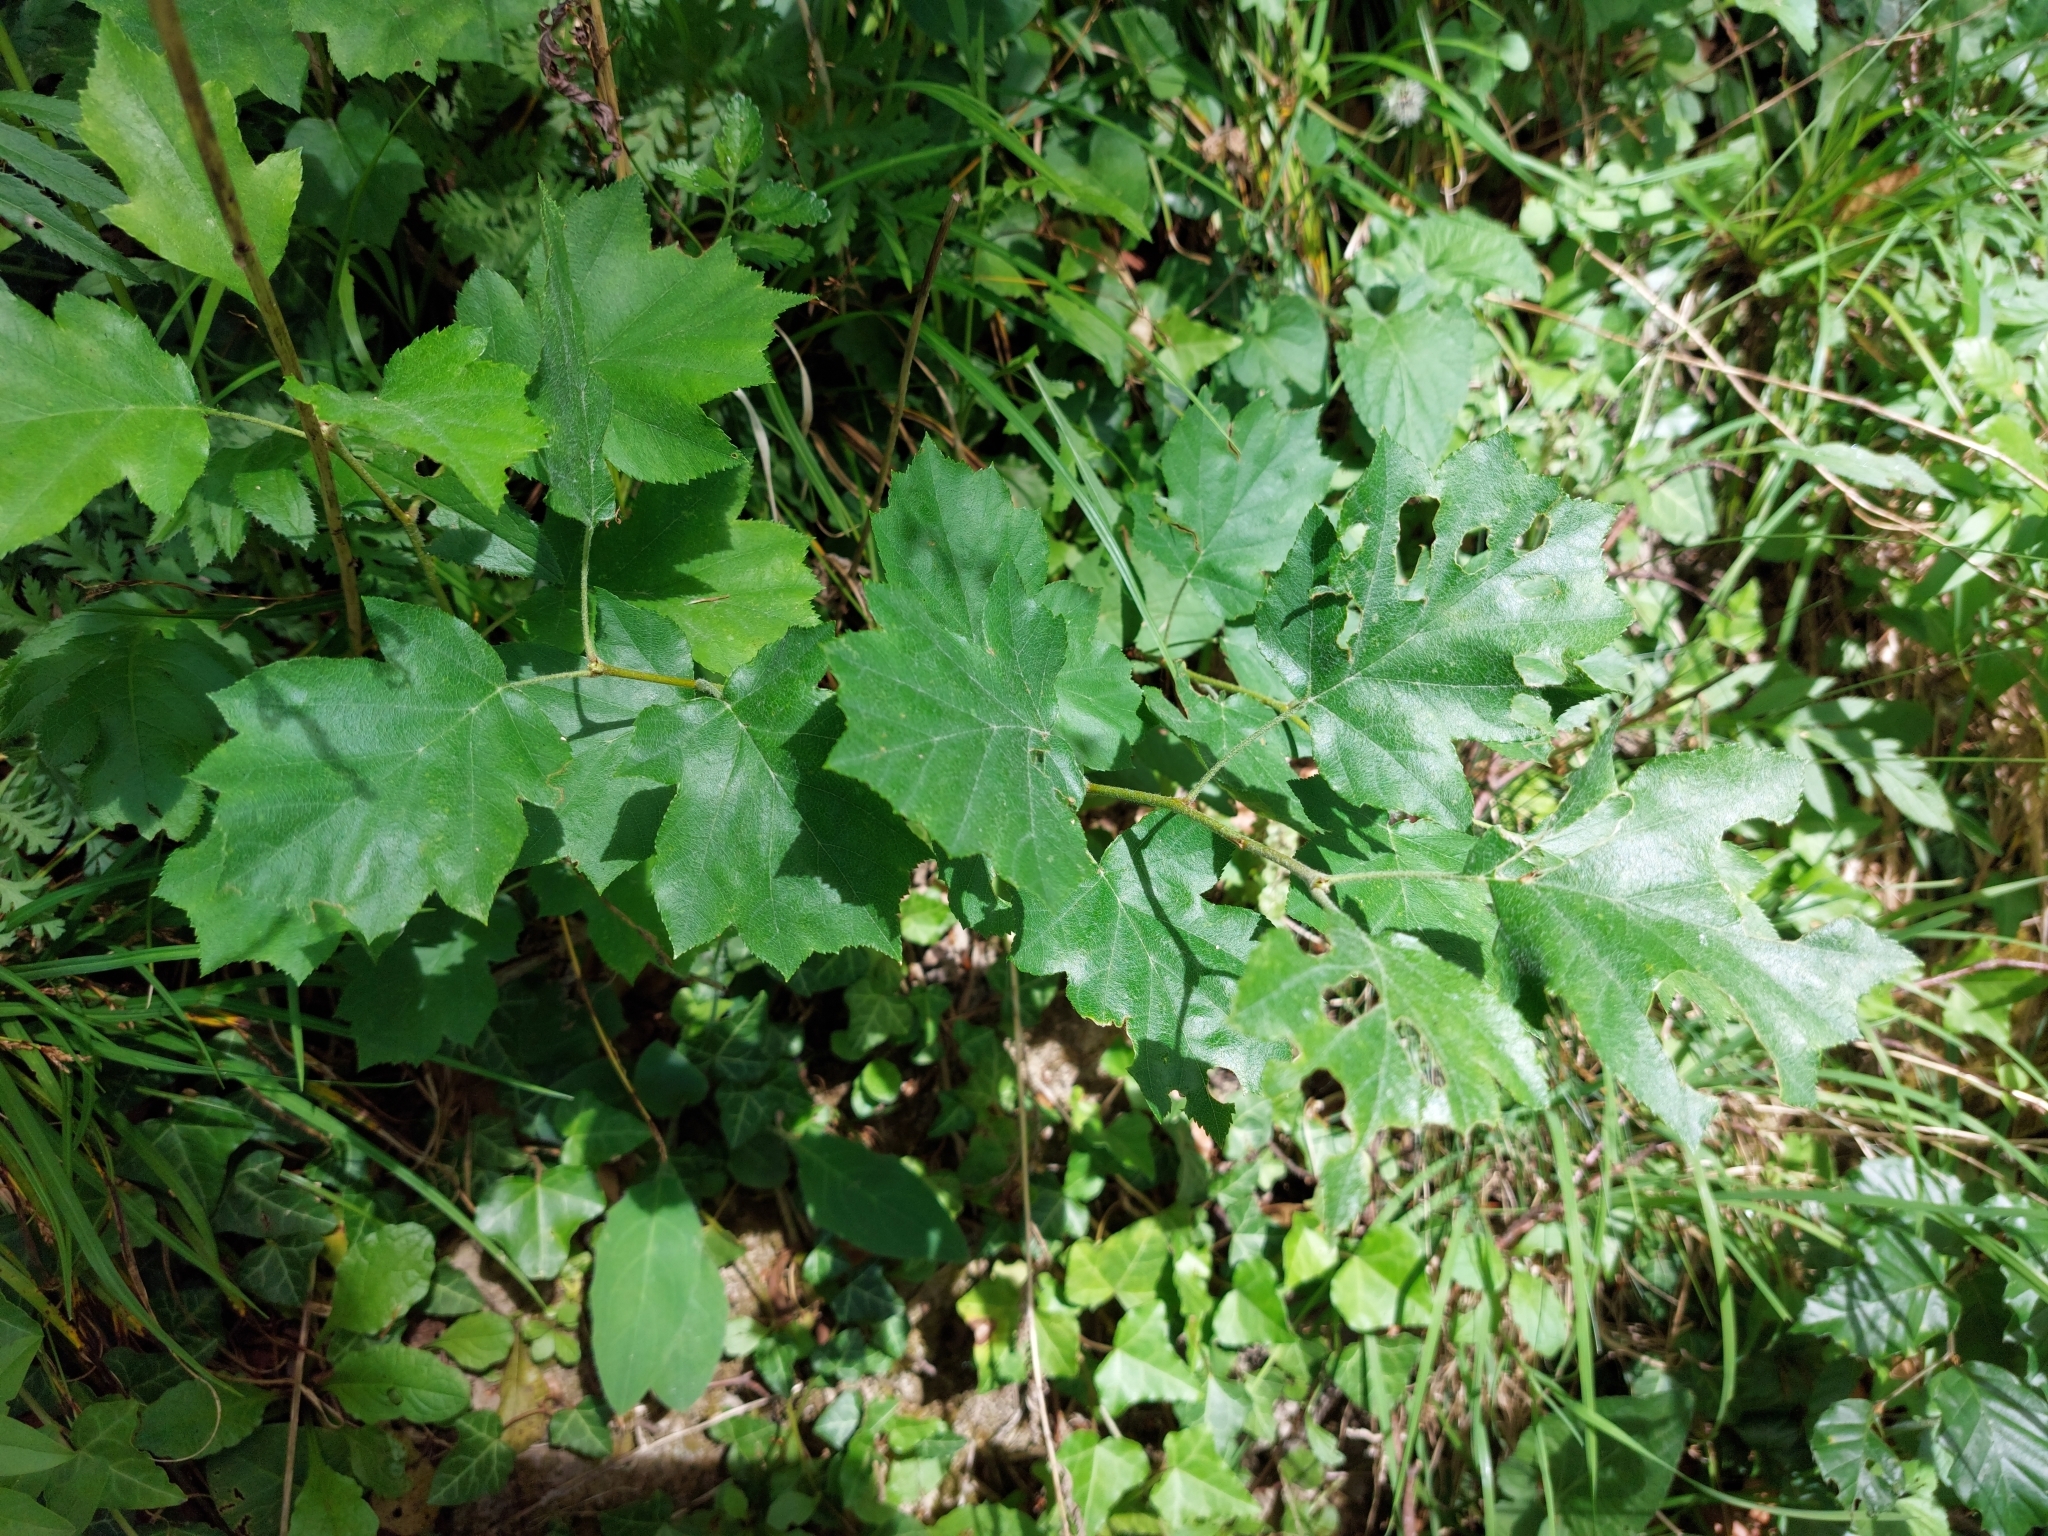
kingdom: Plantae
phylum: Tracheophyta
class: Magnoliopsida
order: Rosales
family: Rosaceae
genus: Torminalis
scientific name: Torminalis glaberrima
